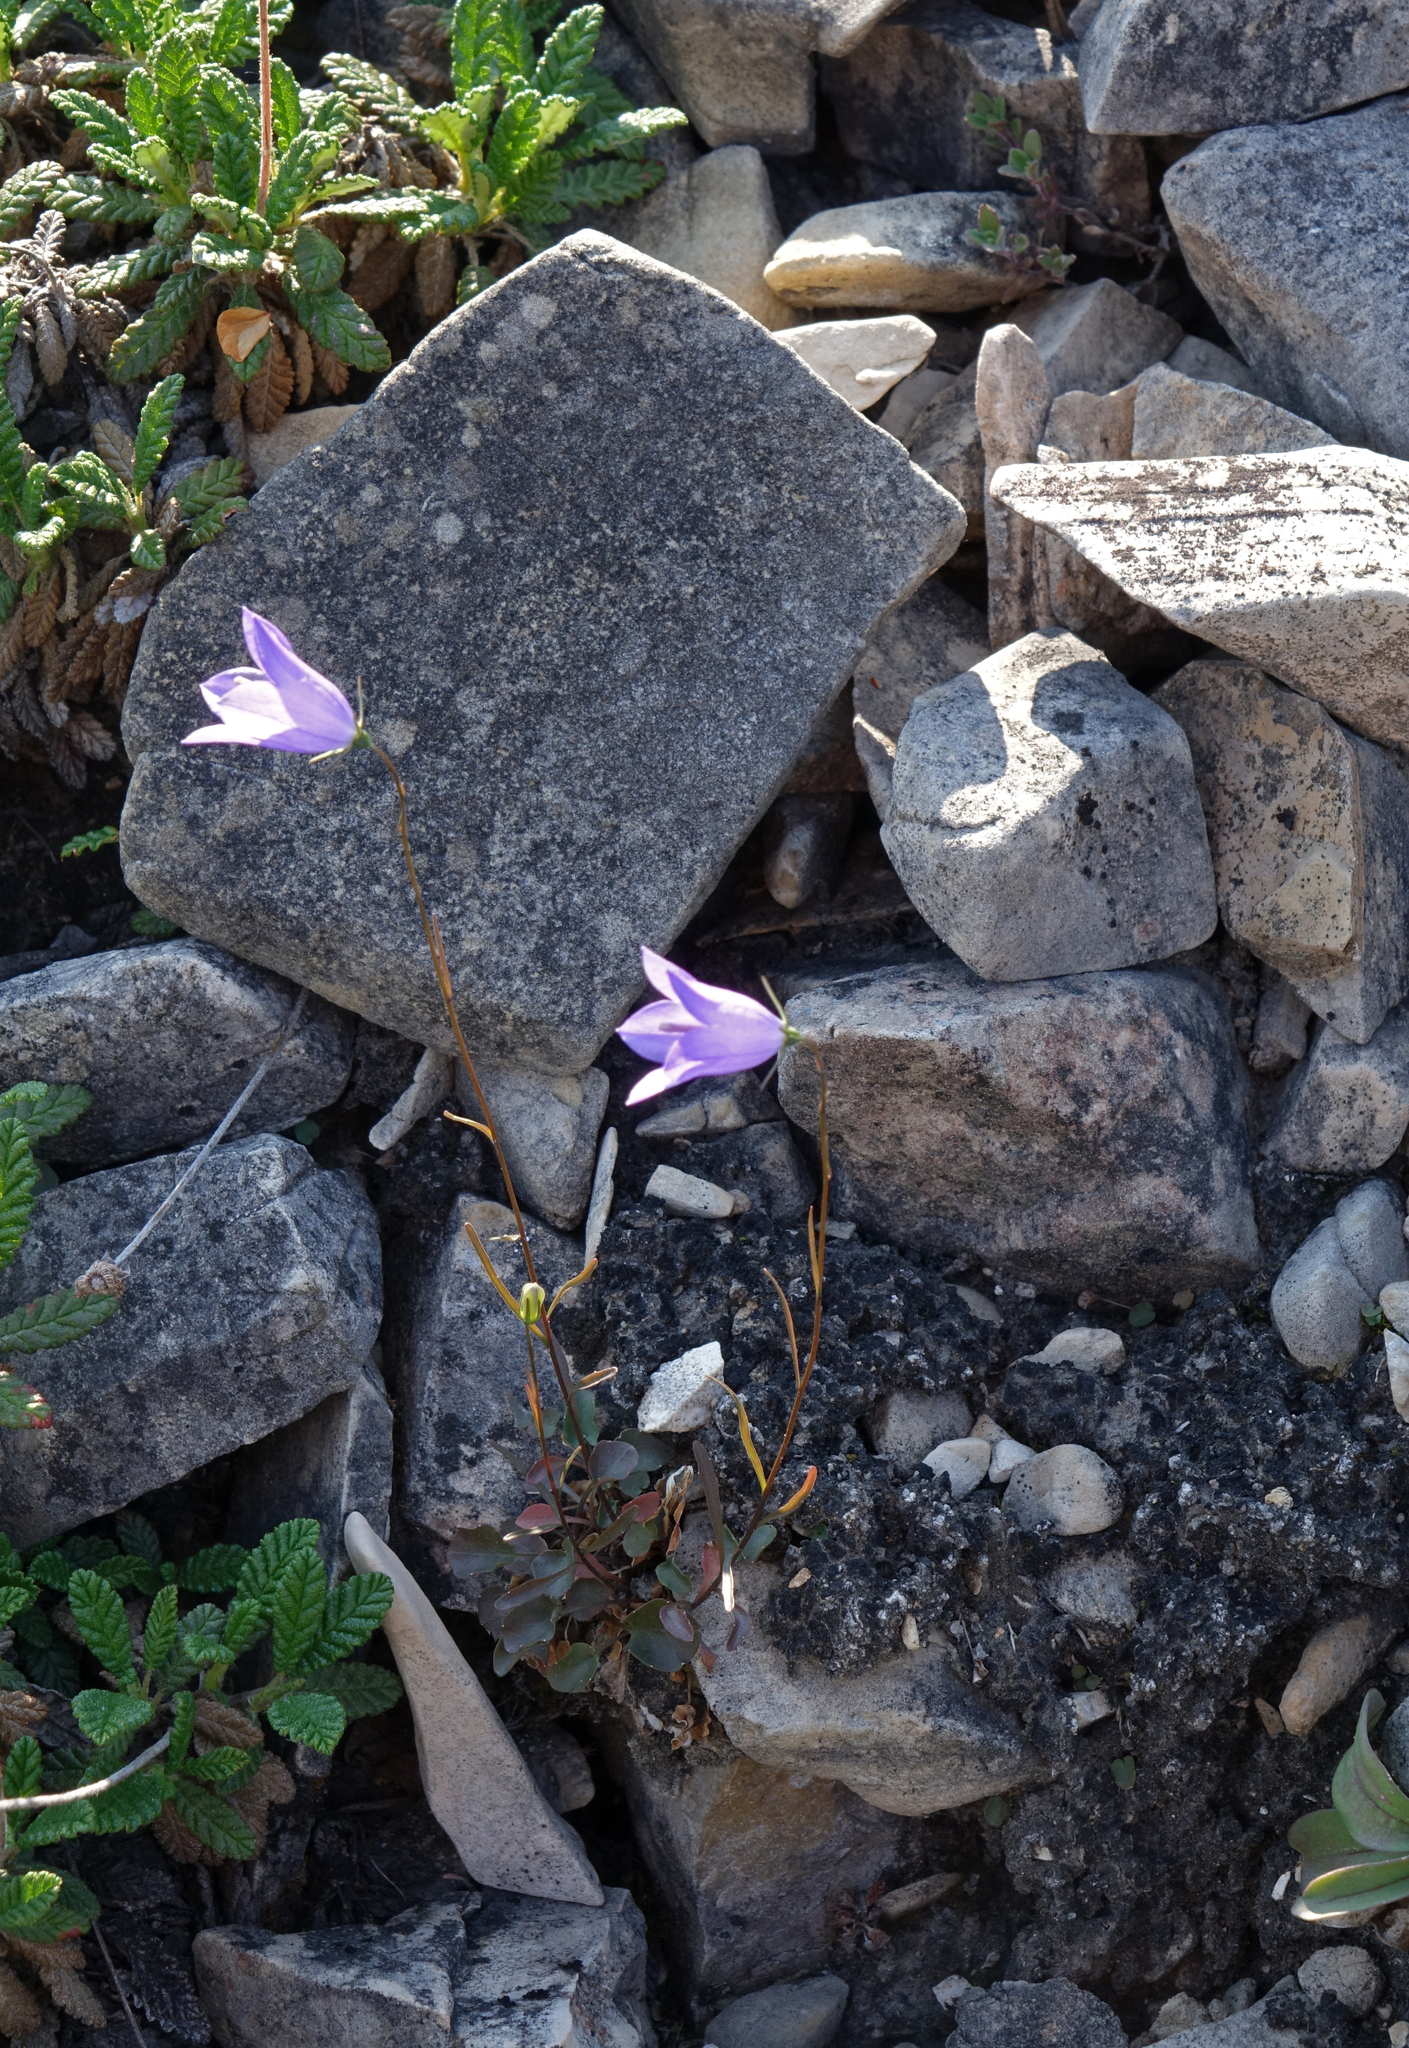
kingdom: Plantae
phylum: Tracheophyta
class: Magnoliopsida
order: Asterales
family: Campanulaceae
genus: Campanula
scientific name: Campanula rotundifolia
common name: Harebell
